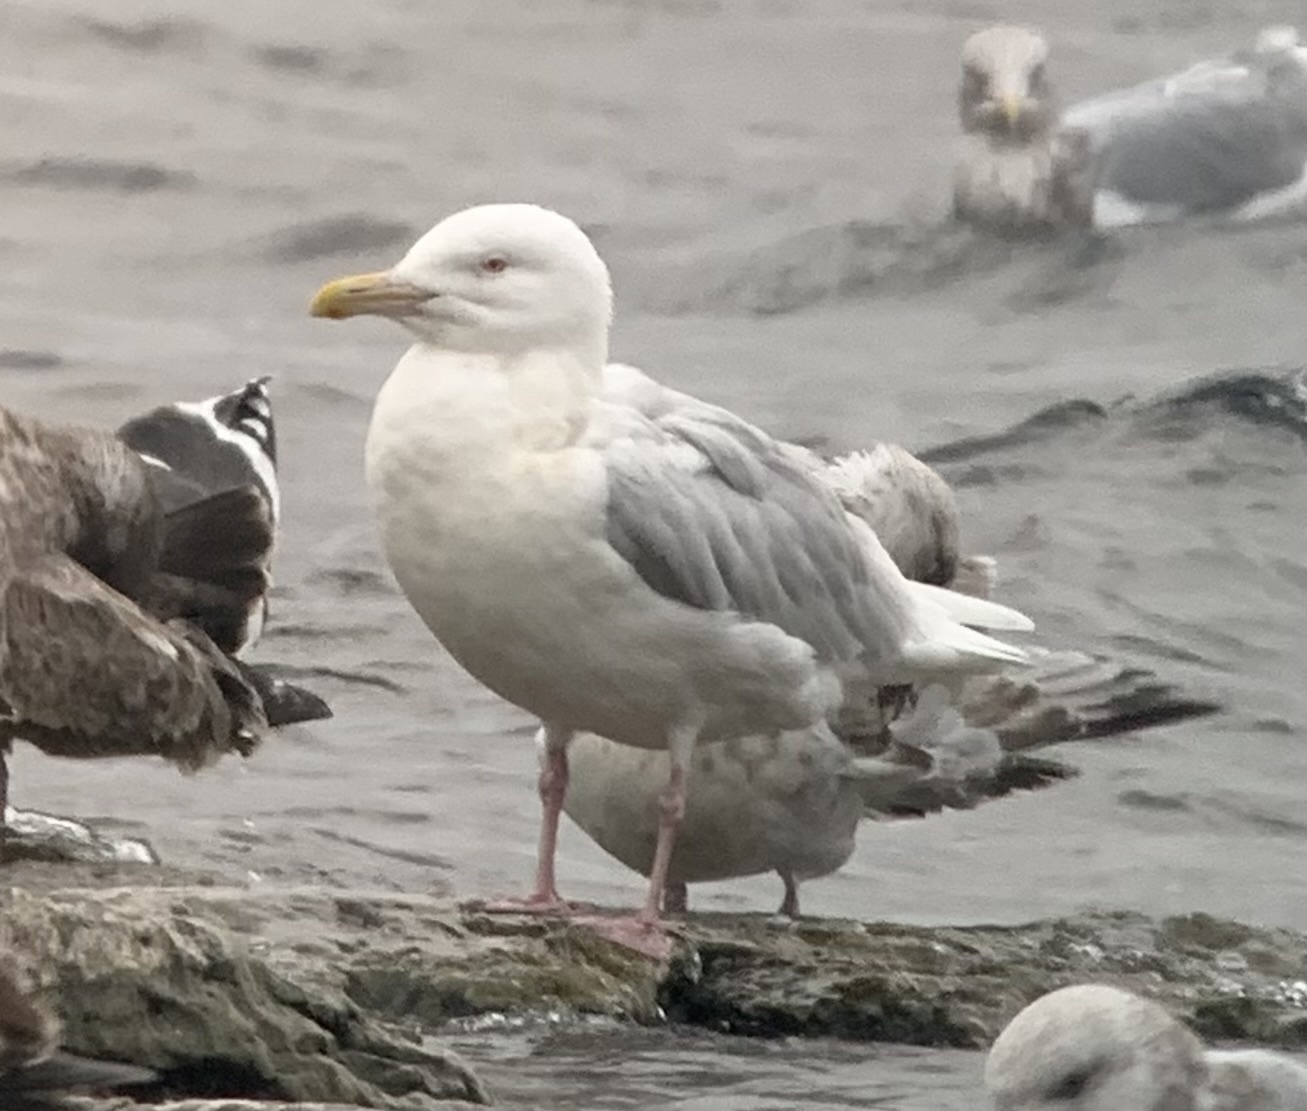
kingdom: Animalia
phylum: Chordata
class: Aves
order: Charadriiformes
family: Laridae
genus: Larus
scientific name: Larus hyperboreus
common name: Glaucous gull
